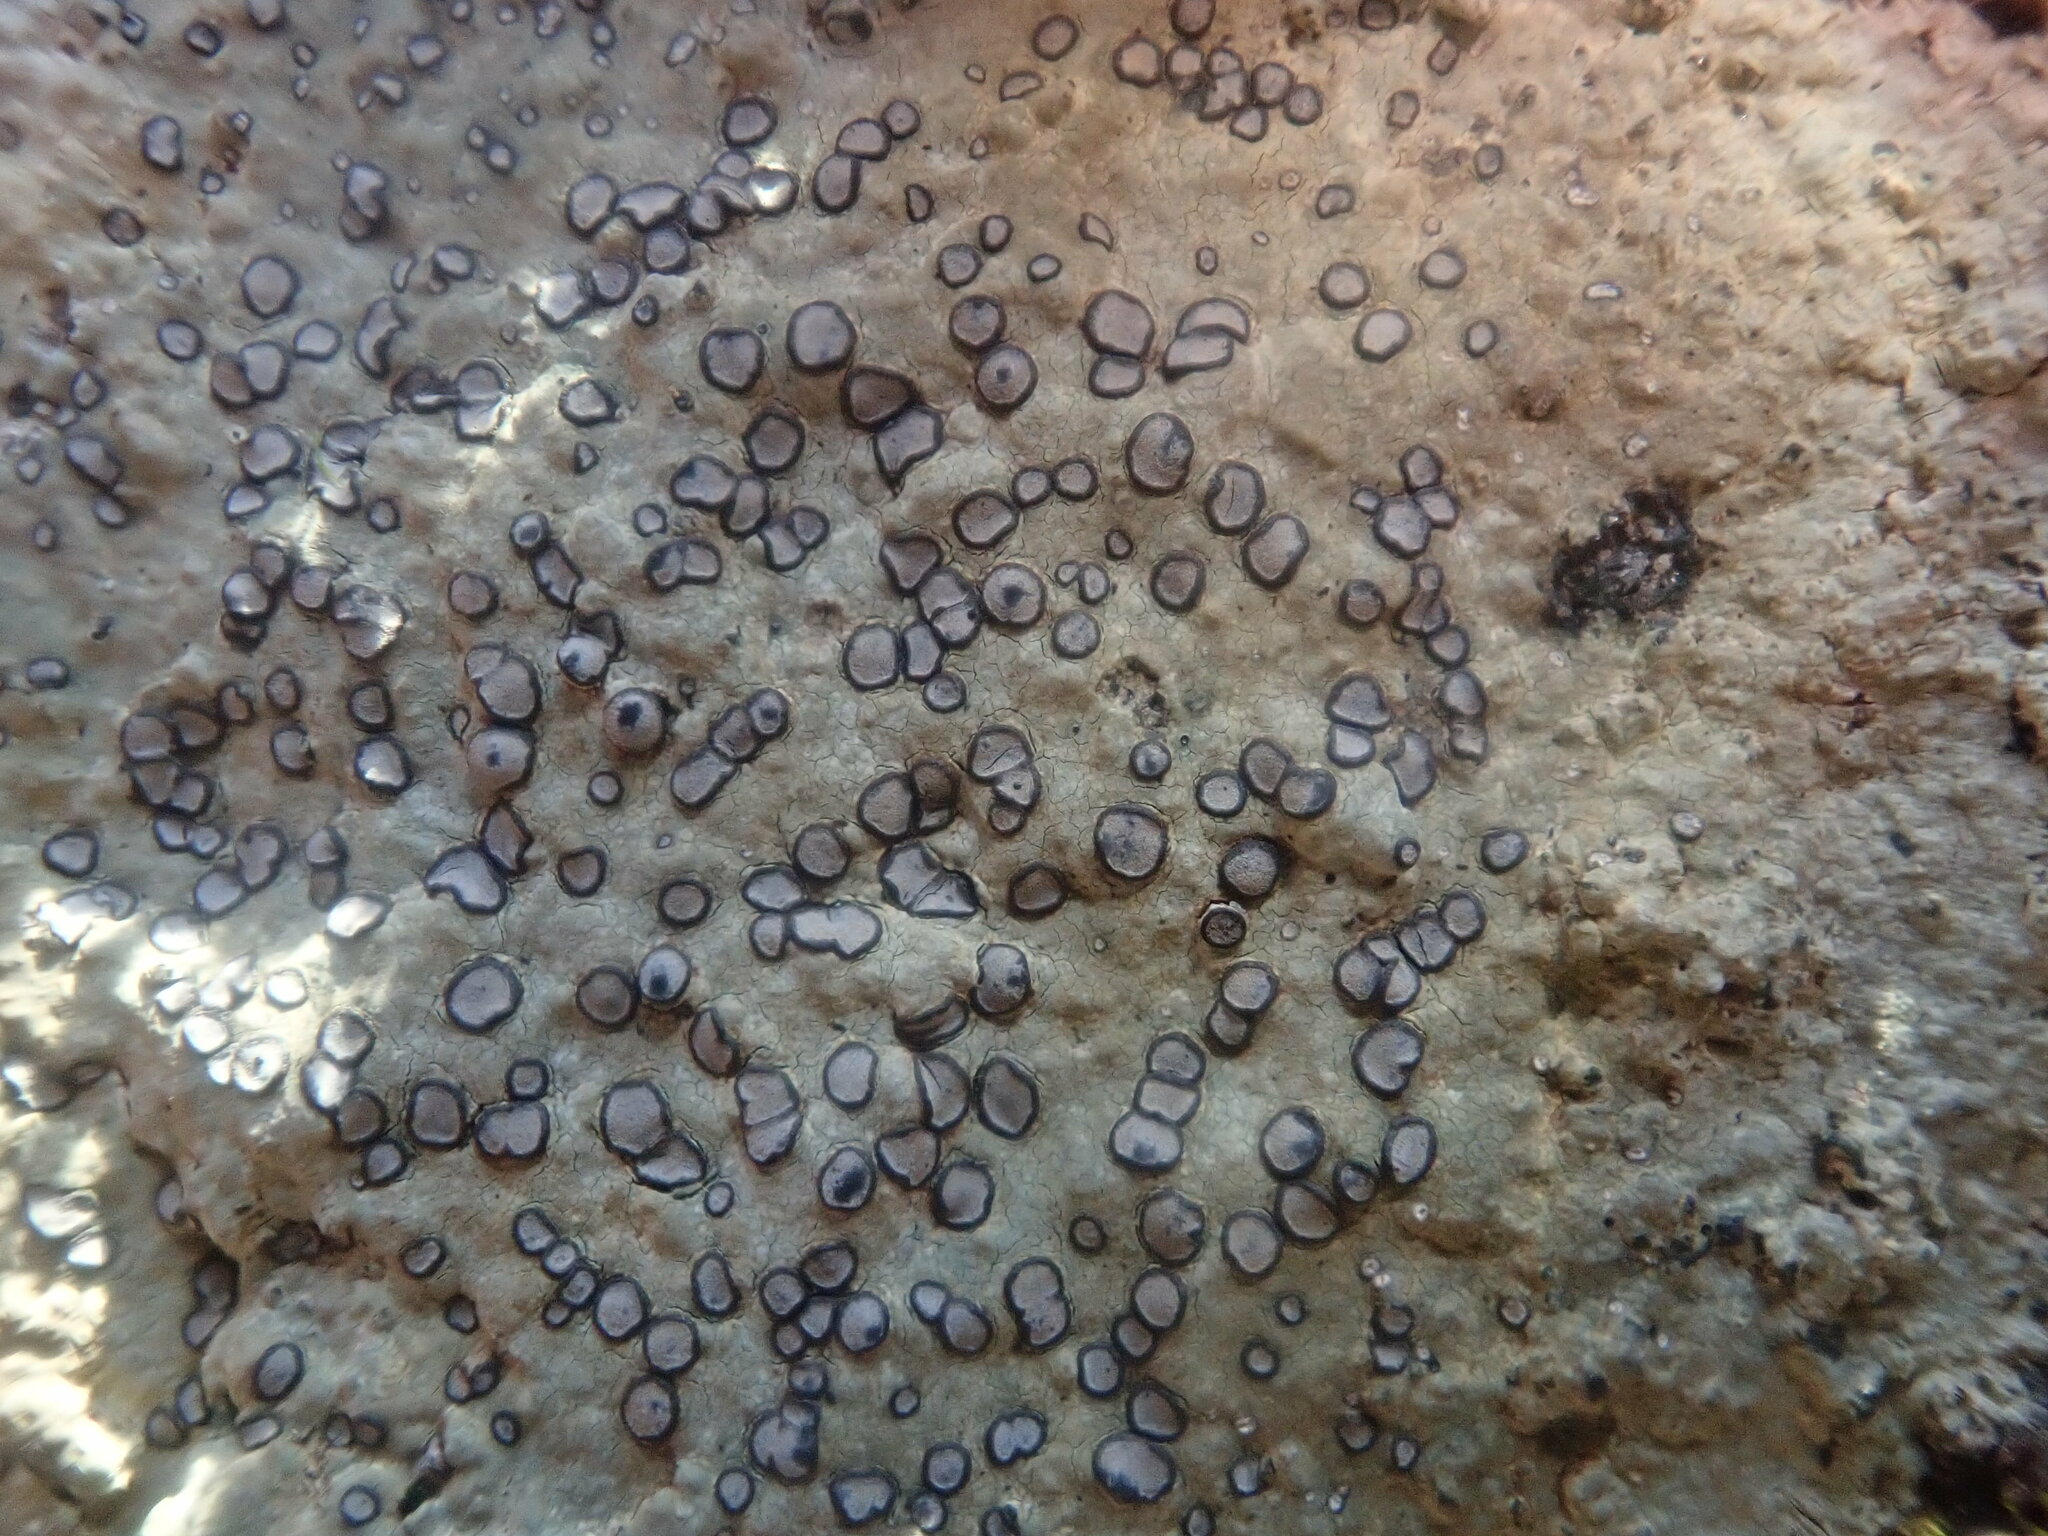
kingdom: Fungi
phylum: Ascomycota
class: Lecanoromycetes
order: Lecideales
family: Lecideaceae
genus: Porpidia
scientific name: Porpidia albocaerulescens
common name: Smokey-eyed boulder lichen
